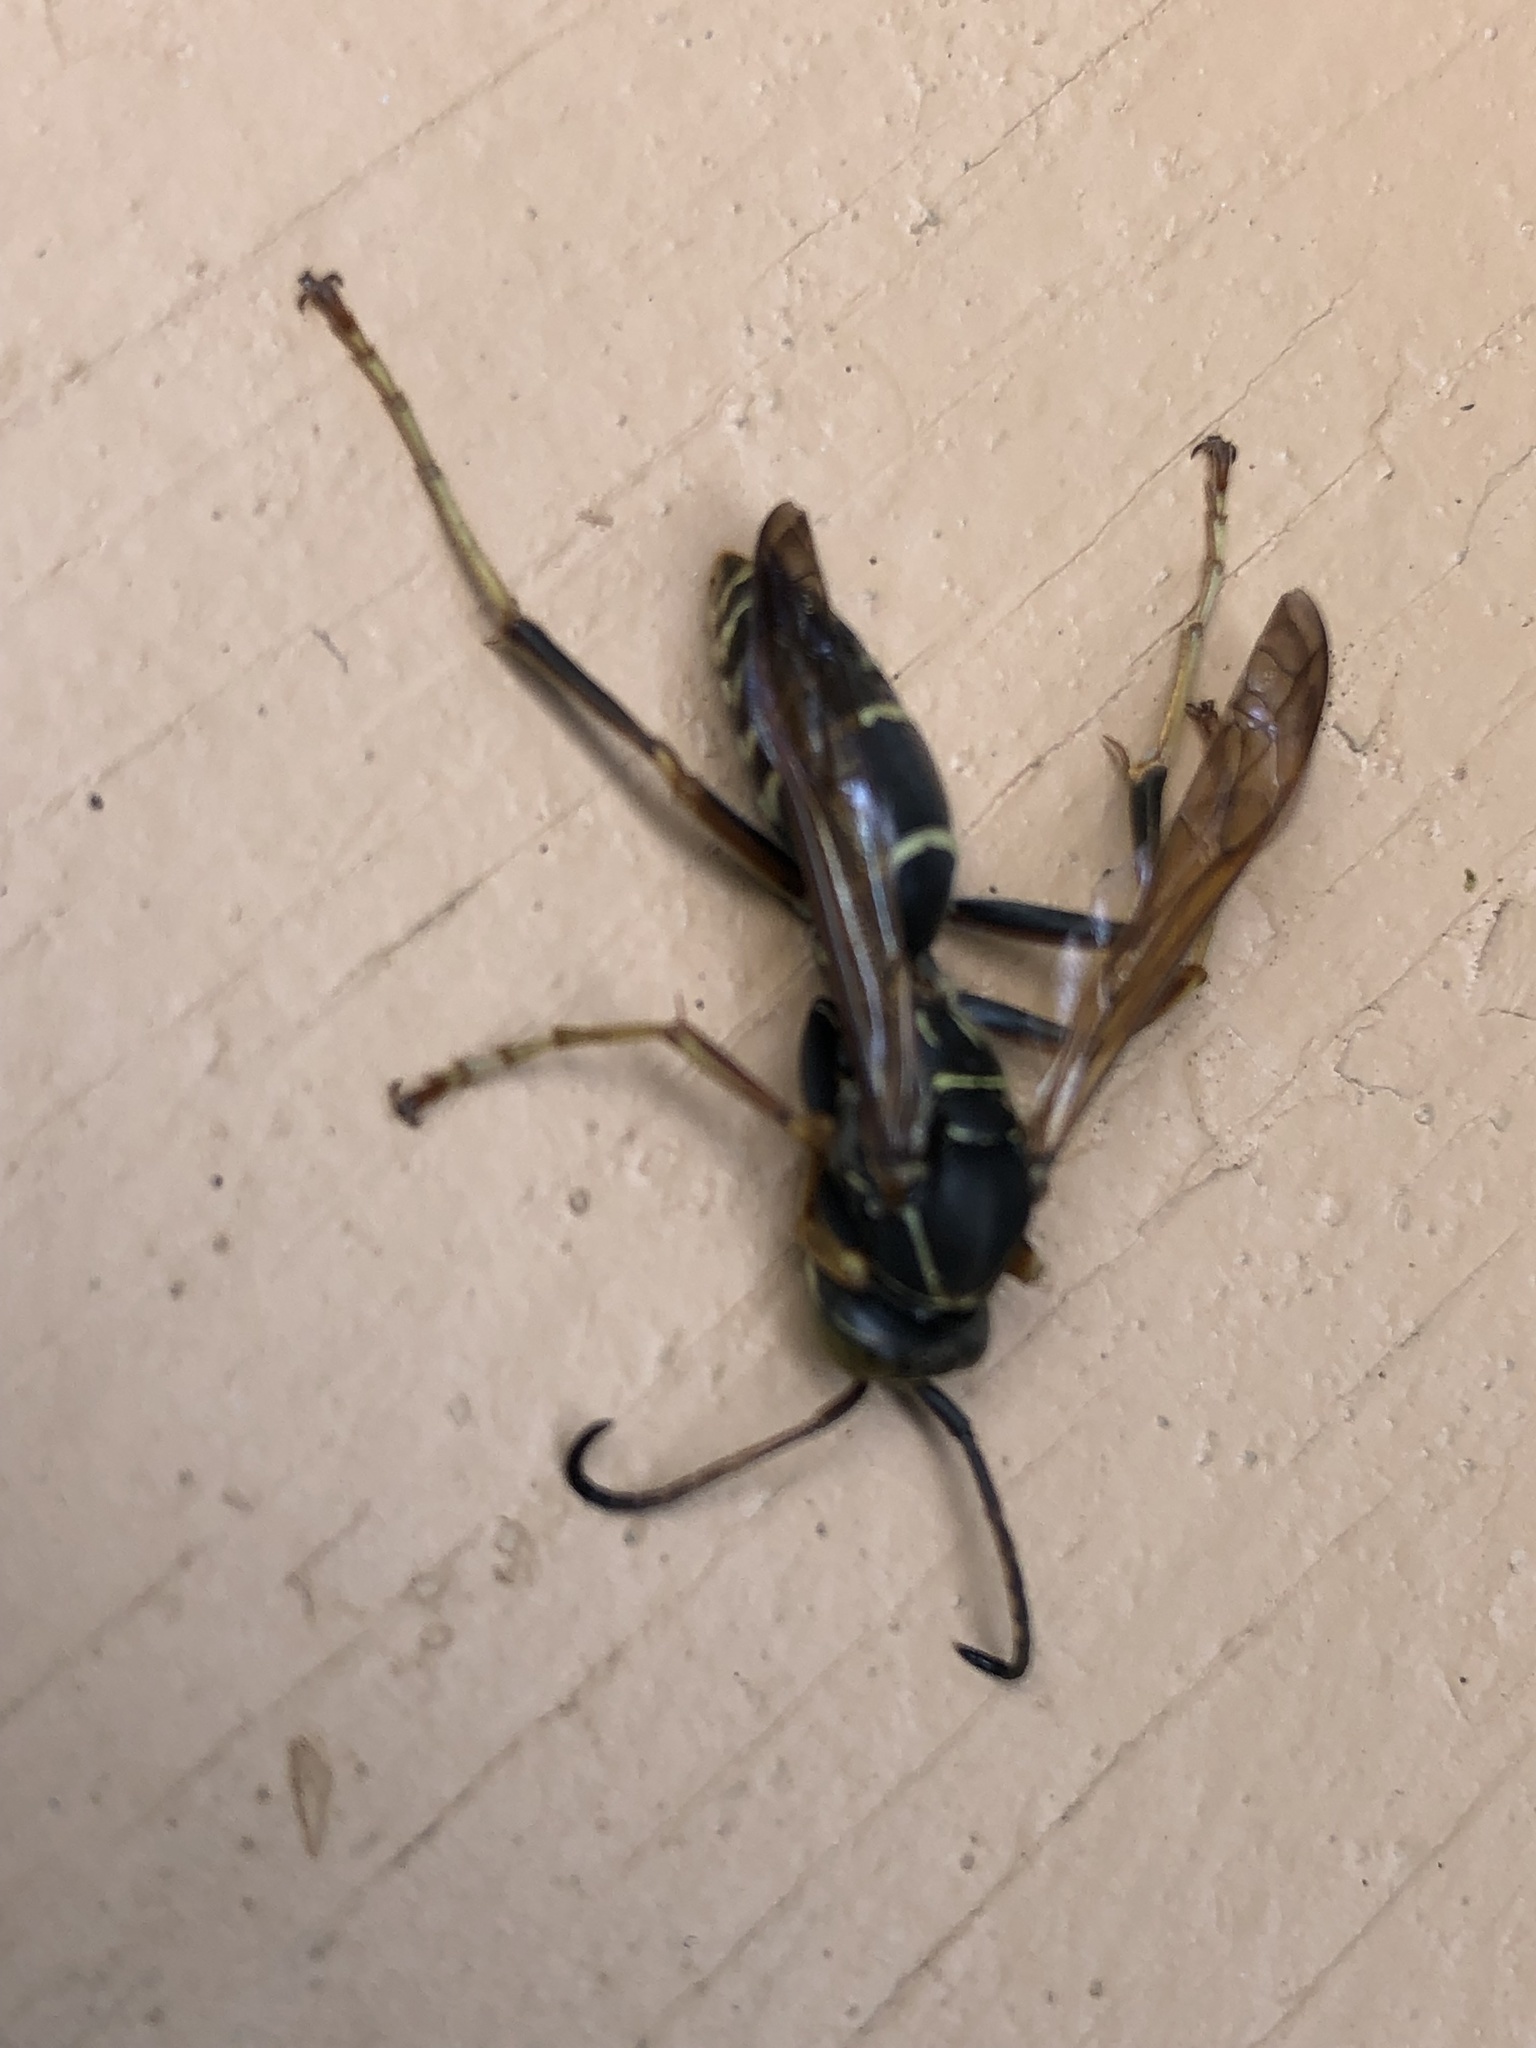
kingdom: Animalia
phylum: Arthropoda
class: Insecta
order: Hymenoptera
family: Eumenidae
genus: Polistes
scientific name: Polistes fuscatus
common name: Dark paper wasp
